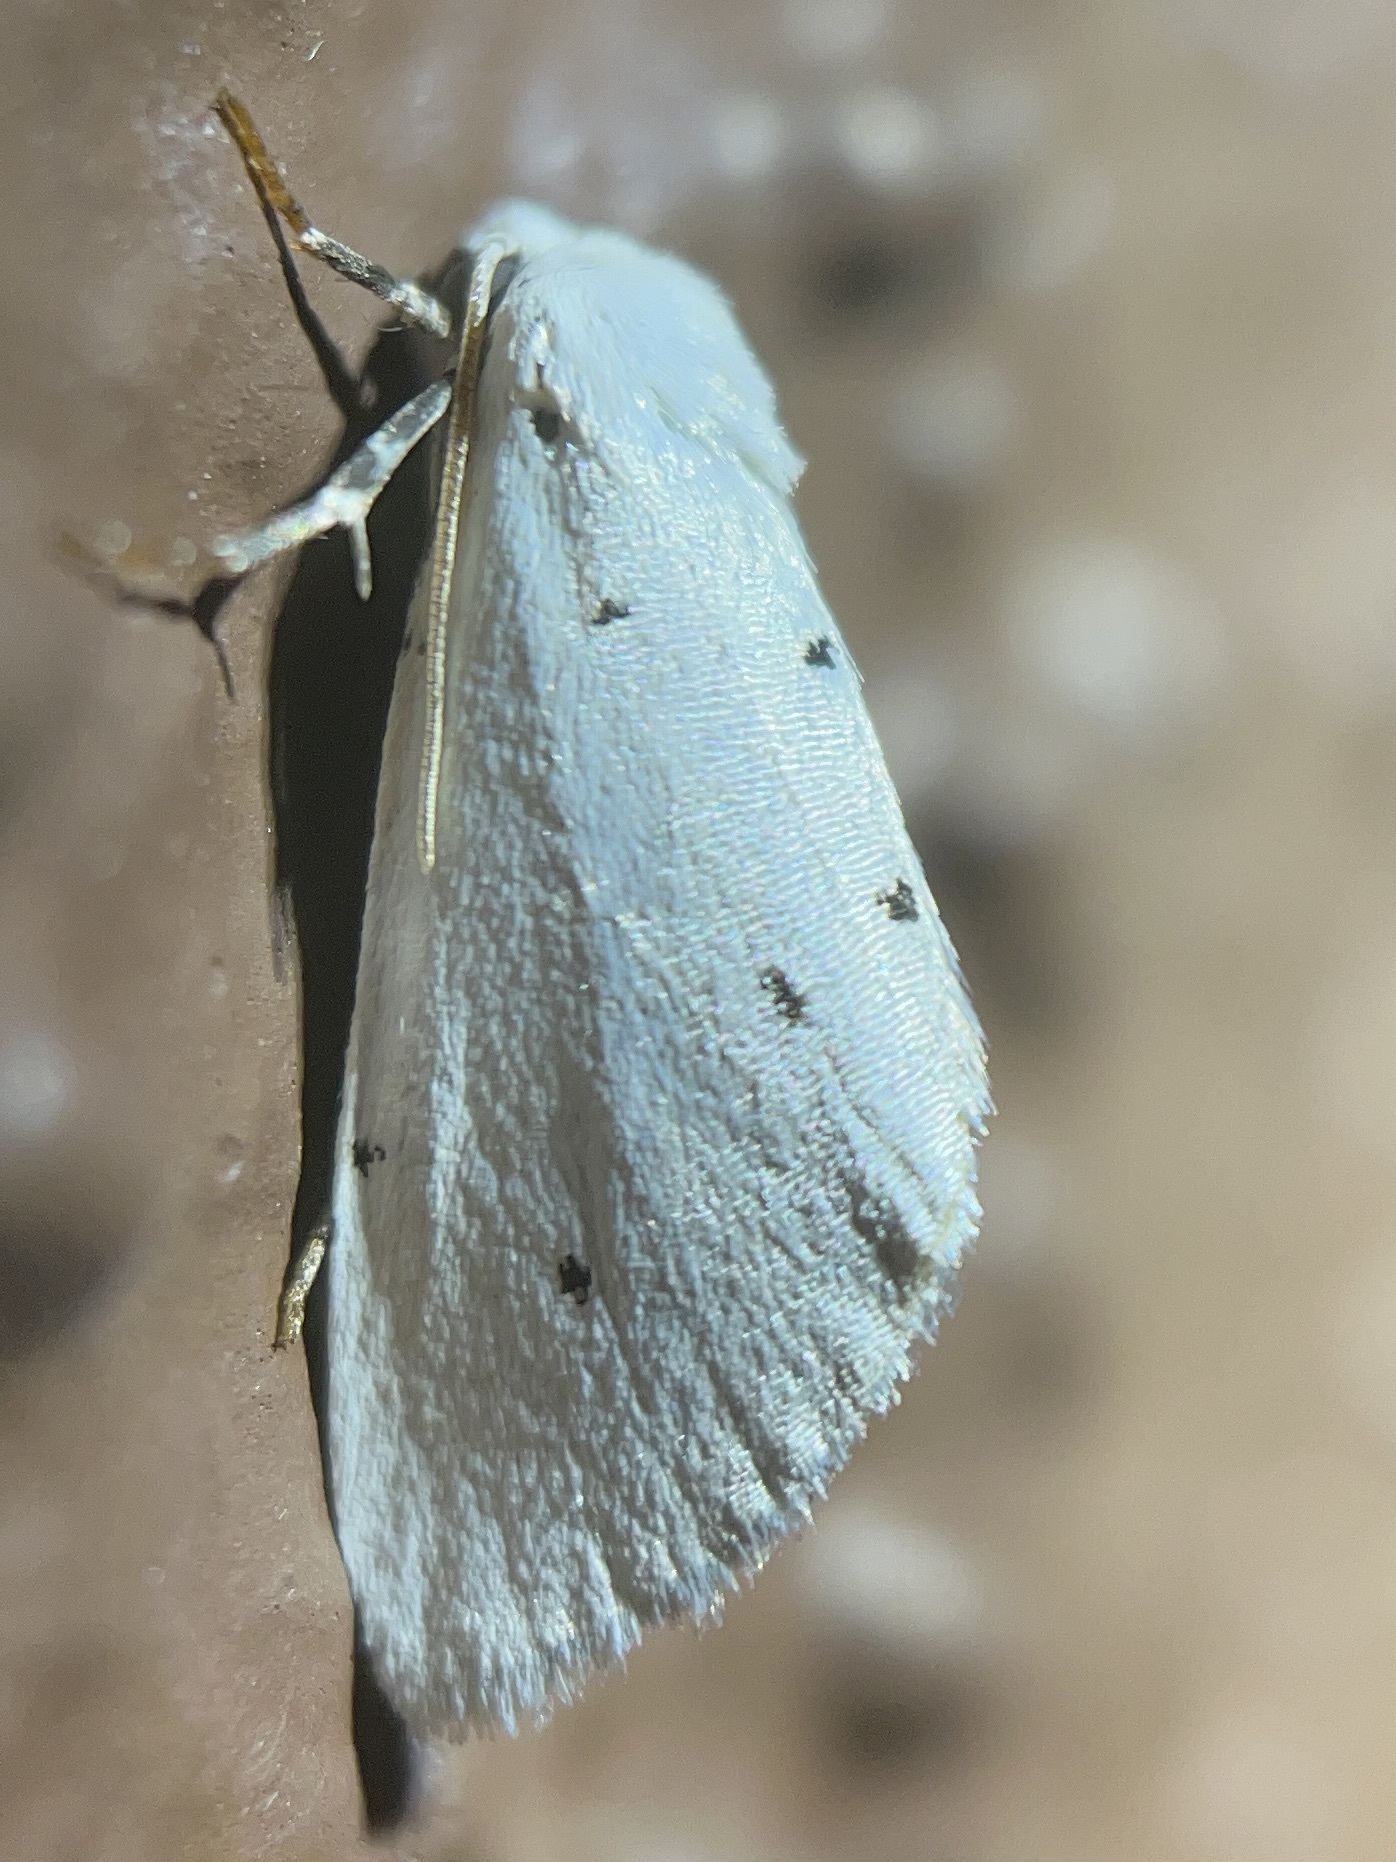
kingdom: Animalia
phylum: Arthropoda
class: Insecta
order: Lepidoptera
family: Noctuidae
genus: Grotella
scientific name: Grotella blanca
